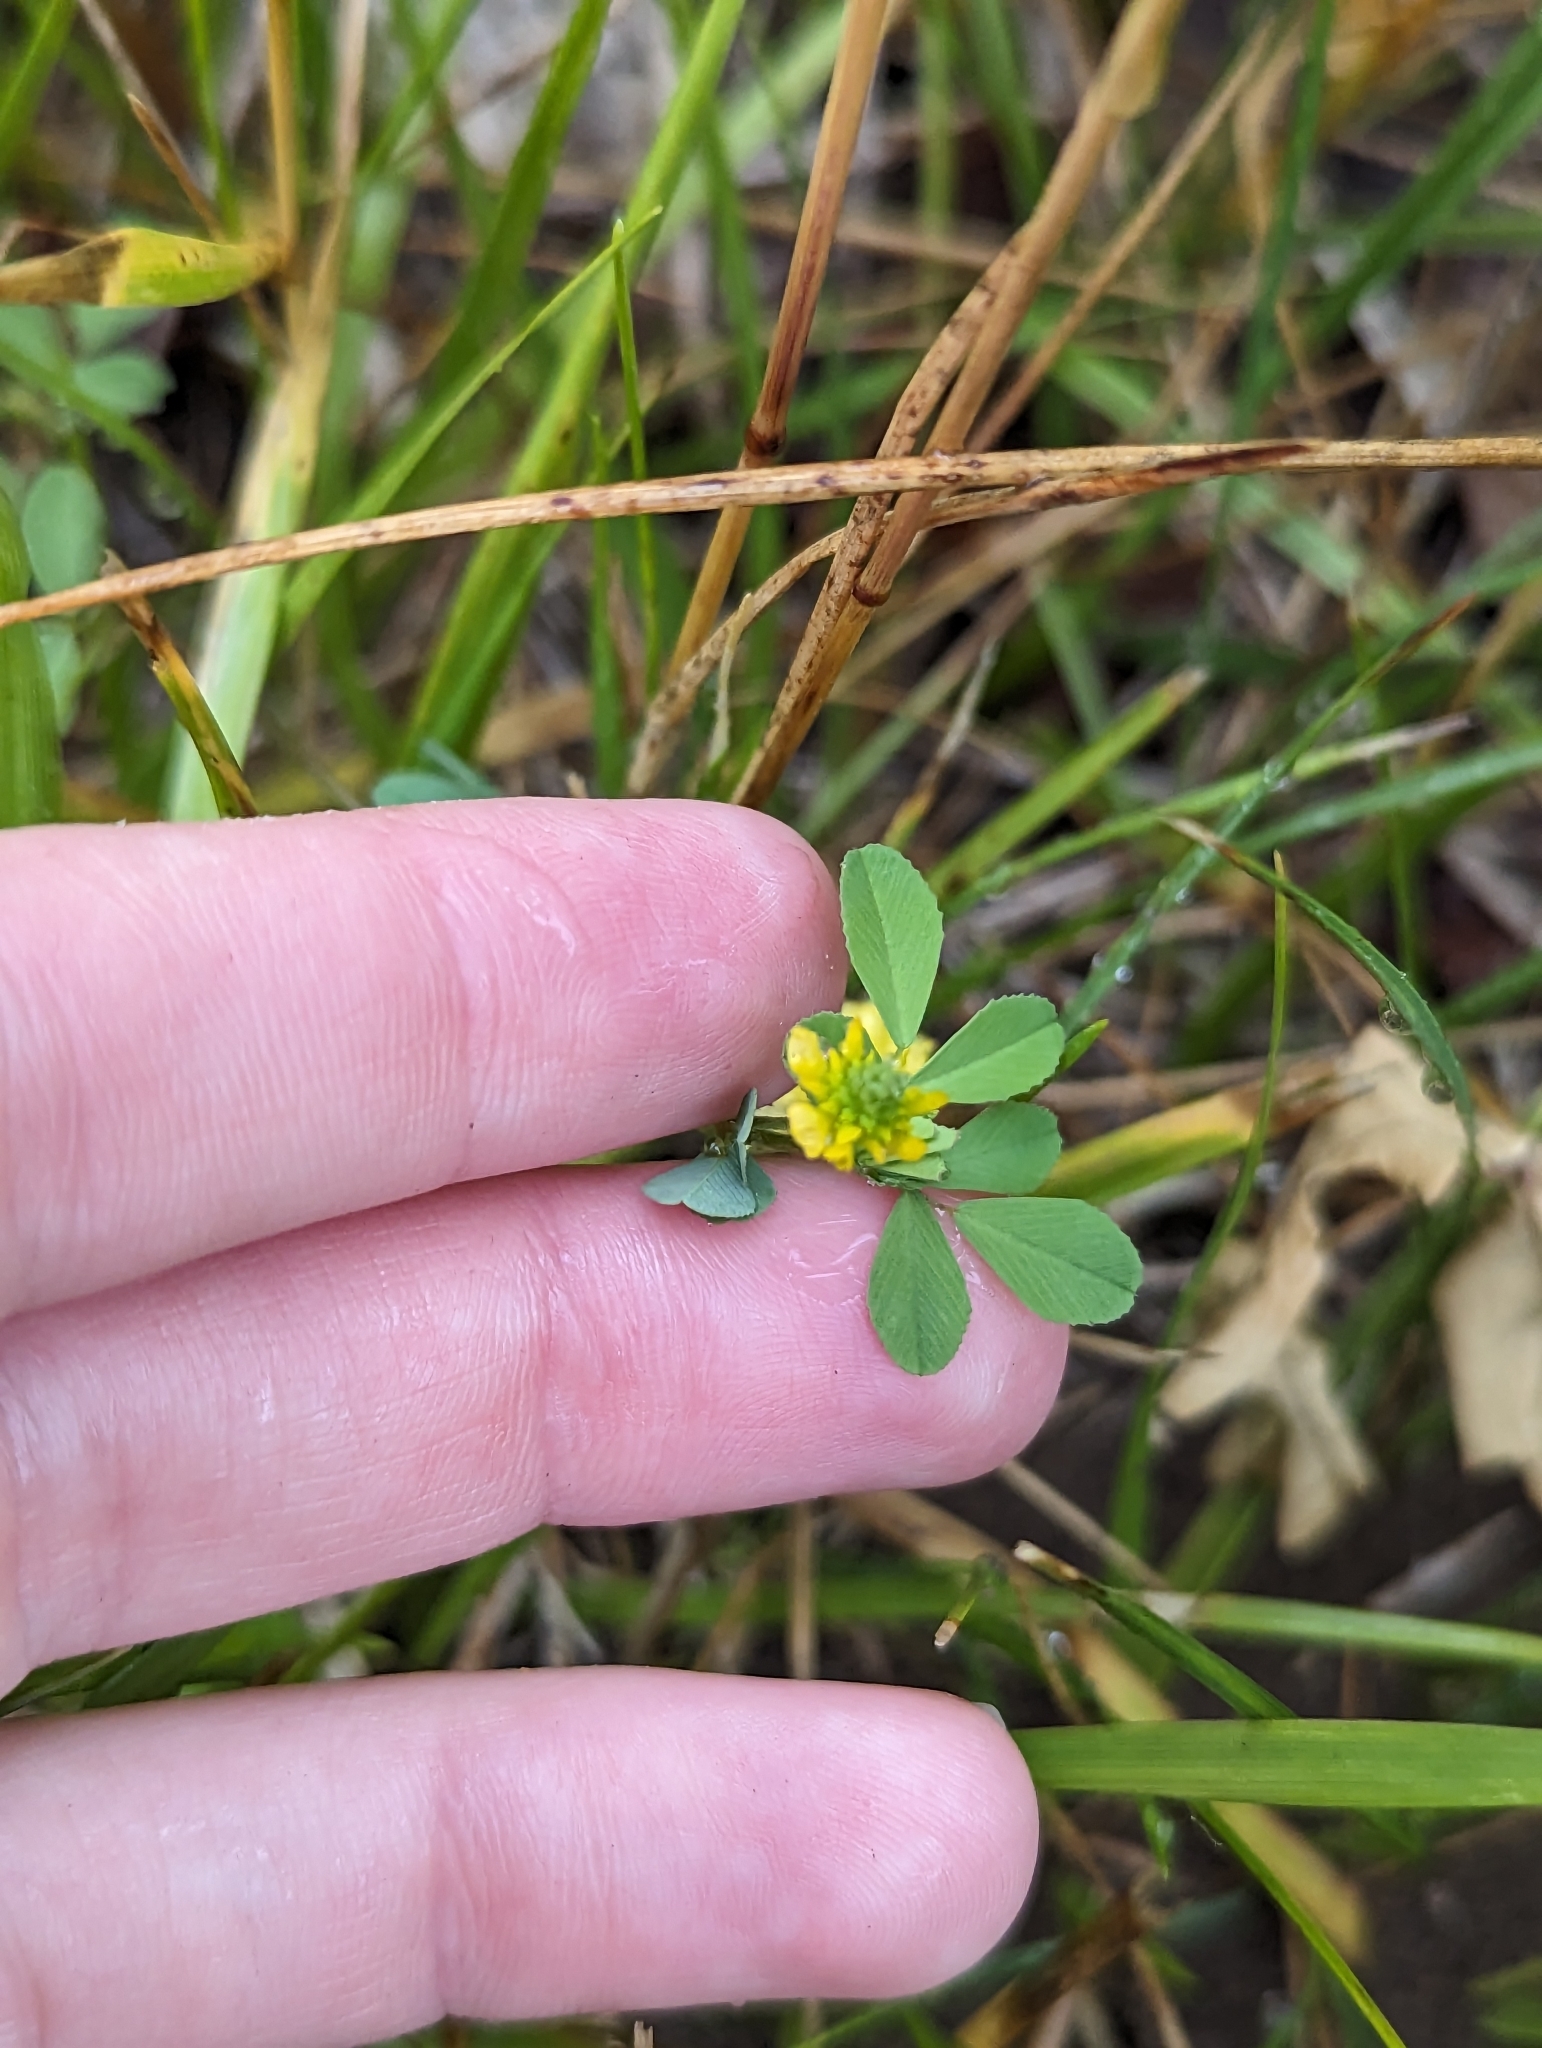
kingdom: Plantae
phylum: Tracheophyta
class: Magnoliopsida
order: Fabales
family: Fabaceae
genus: Trifolium
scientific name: Trifolium campestre
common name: Field clover
